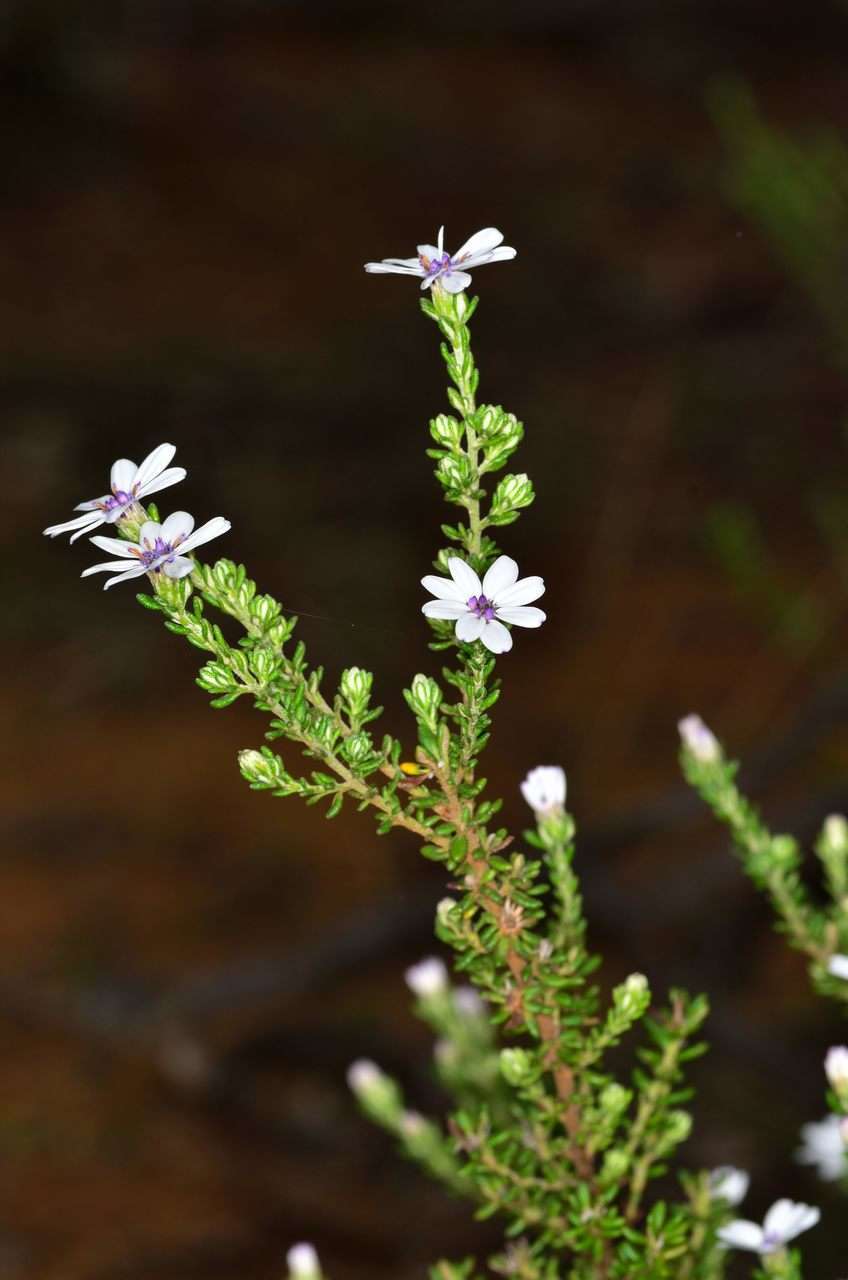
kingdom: Plantae
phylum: Tracheophyta
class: Magnoliopsida
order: Asterales
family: Asteraceae
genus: Olearia
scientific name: Olearia minor
